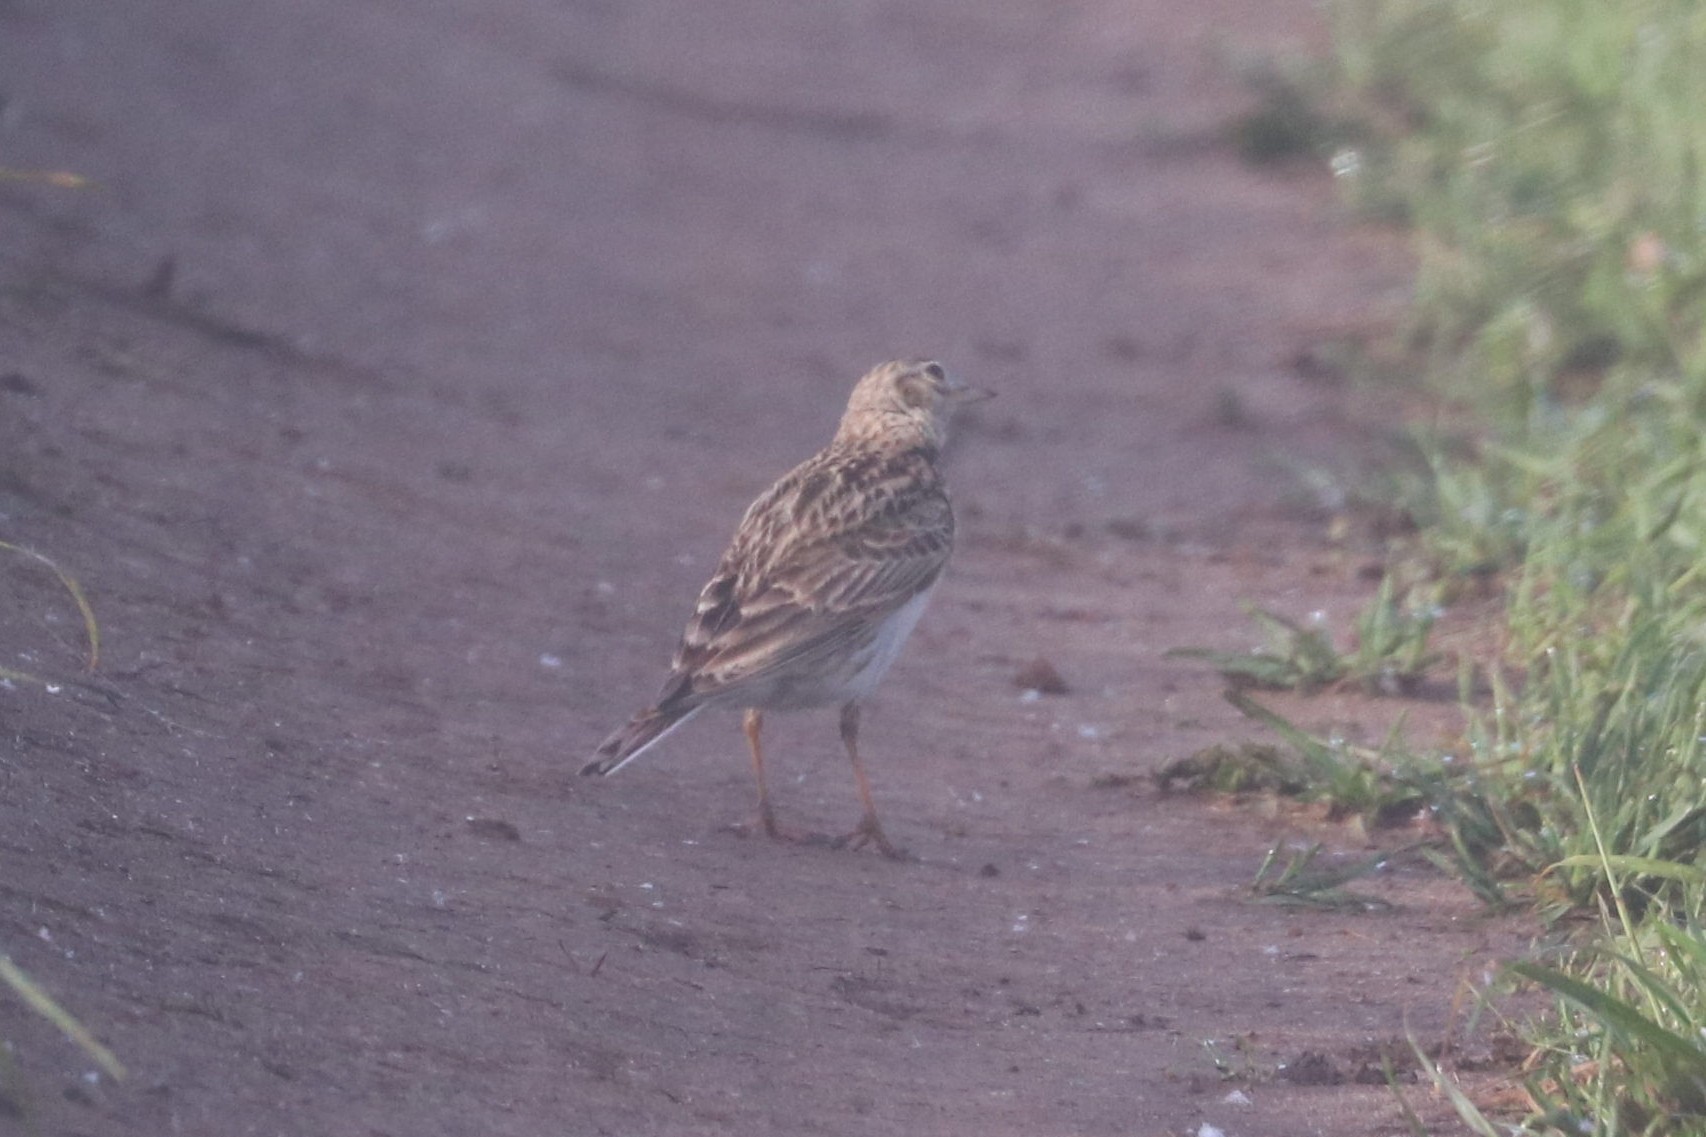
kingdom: Animalia
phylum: Chordata
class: Aves
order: Passeriformes
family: Alaudidae
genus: Alauda
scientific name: Alauda arvensis
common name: Eurasian skylark
